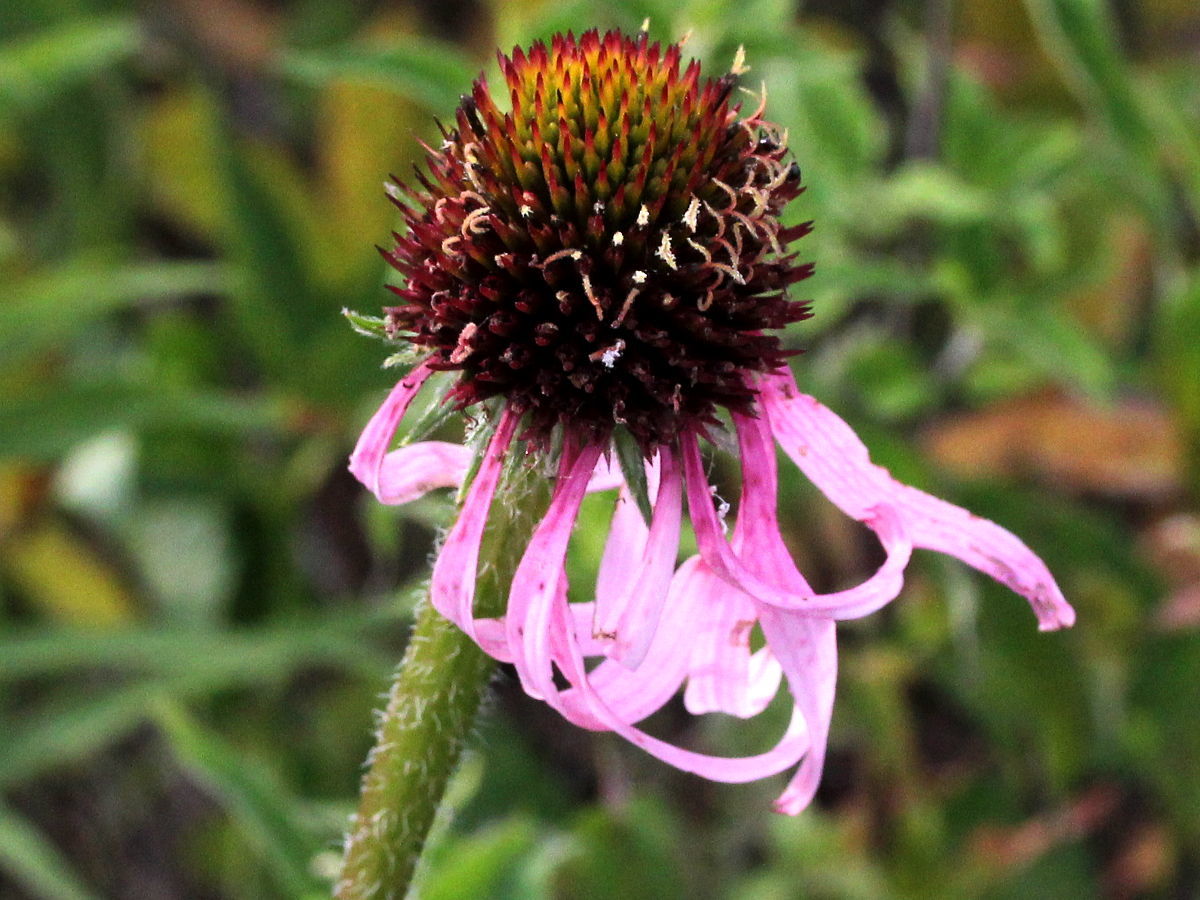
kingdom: Plantae
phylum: Tracheophyta
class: Magnoliopsida
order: Asterales
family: Asteraceae
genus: Echinacea
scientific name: Echinacea pallida
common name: Pale echinacea
